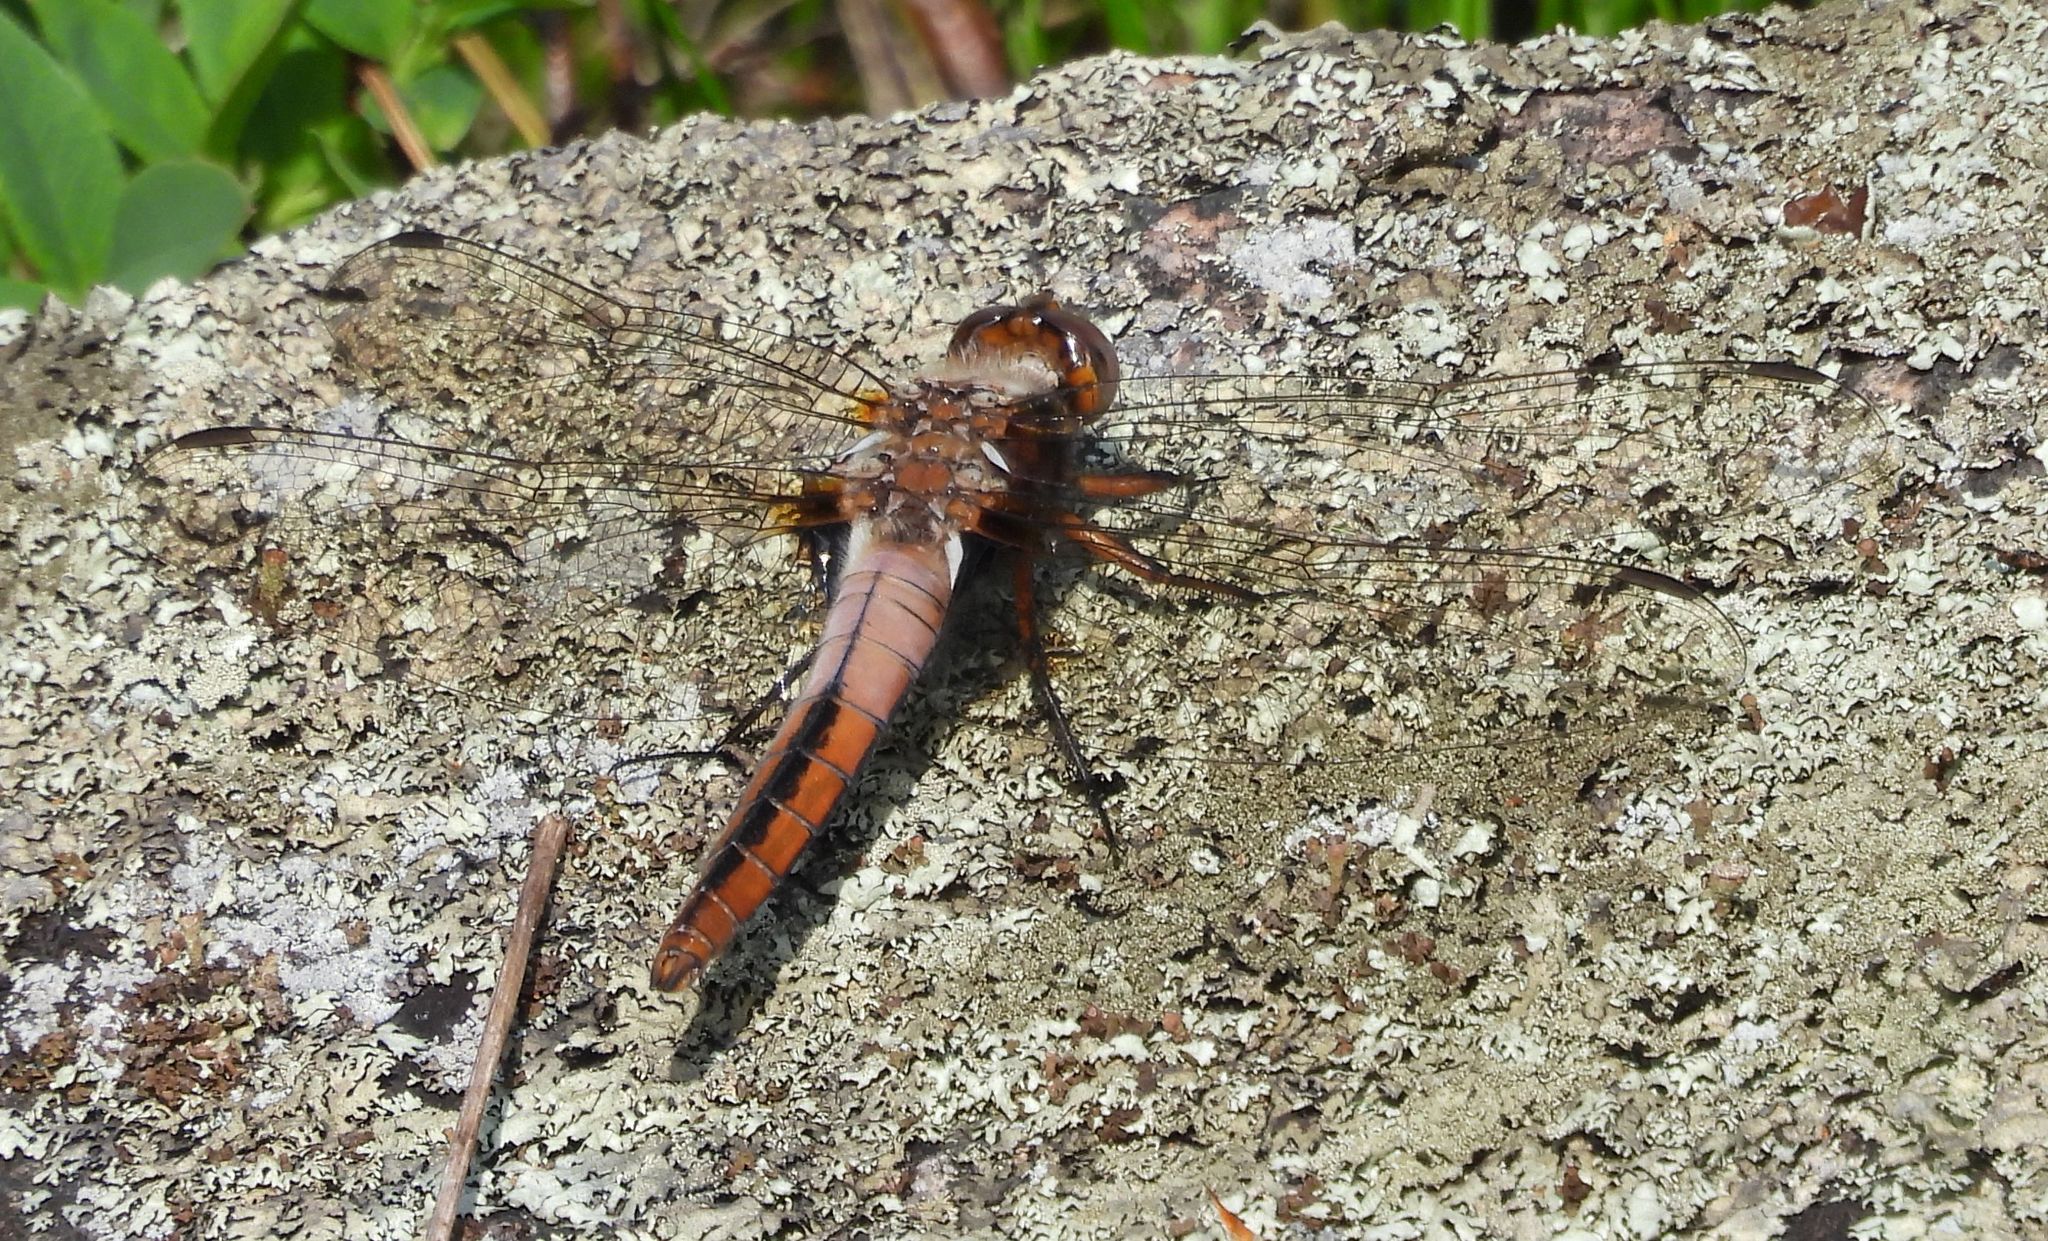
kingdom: Animalia
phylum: Arthropoda
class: Insecta
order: Odonata
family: Libellulidae
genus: Ladona
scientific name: Ladona julia
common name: Chalk-fronted corporal
